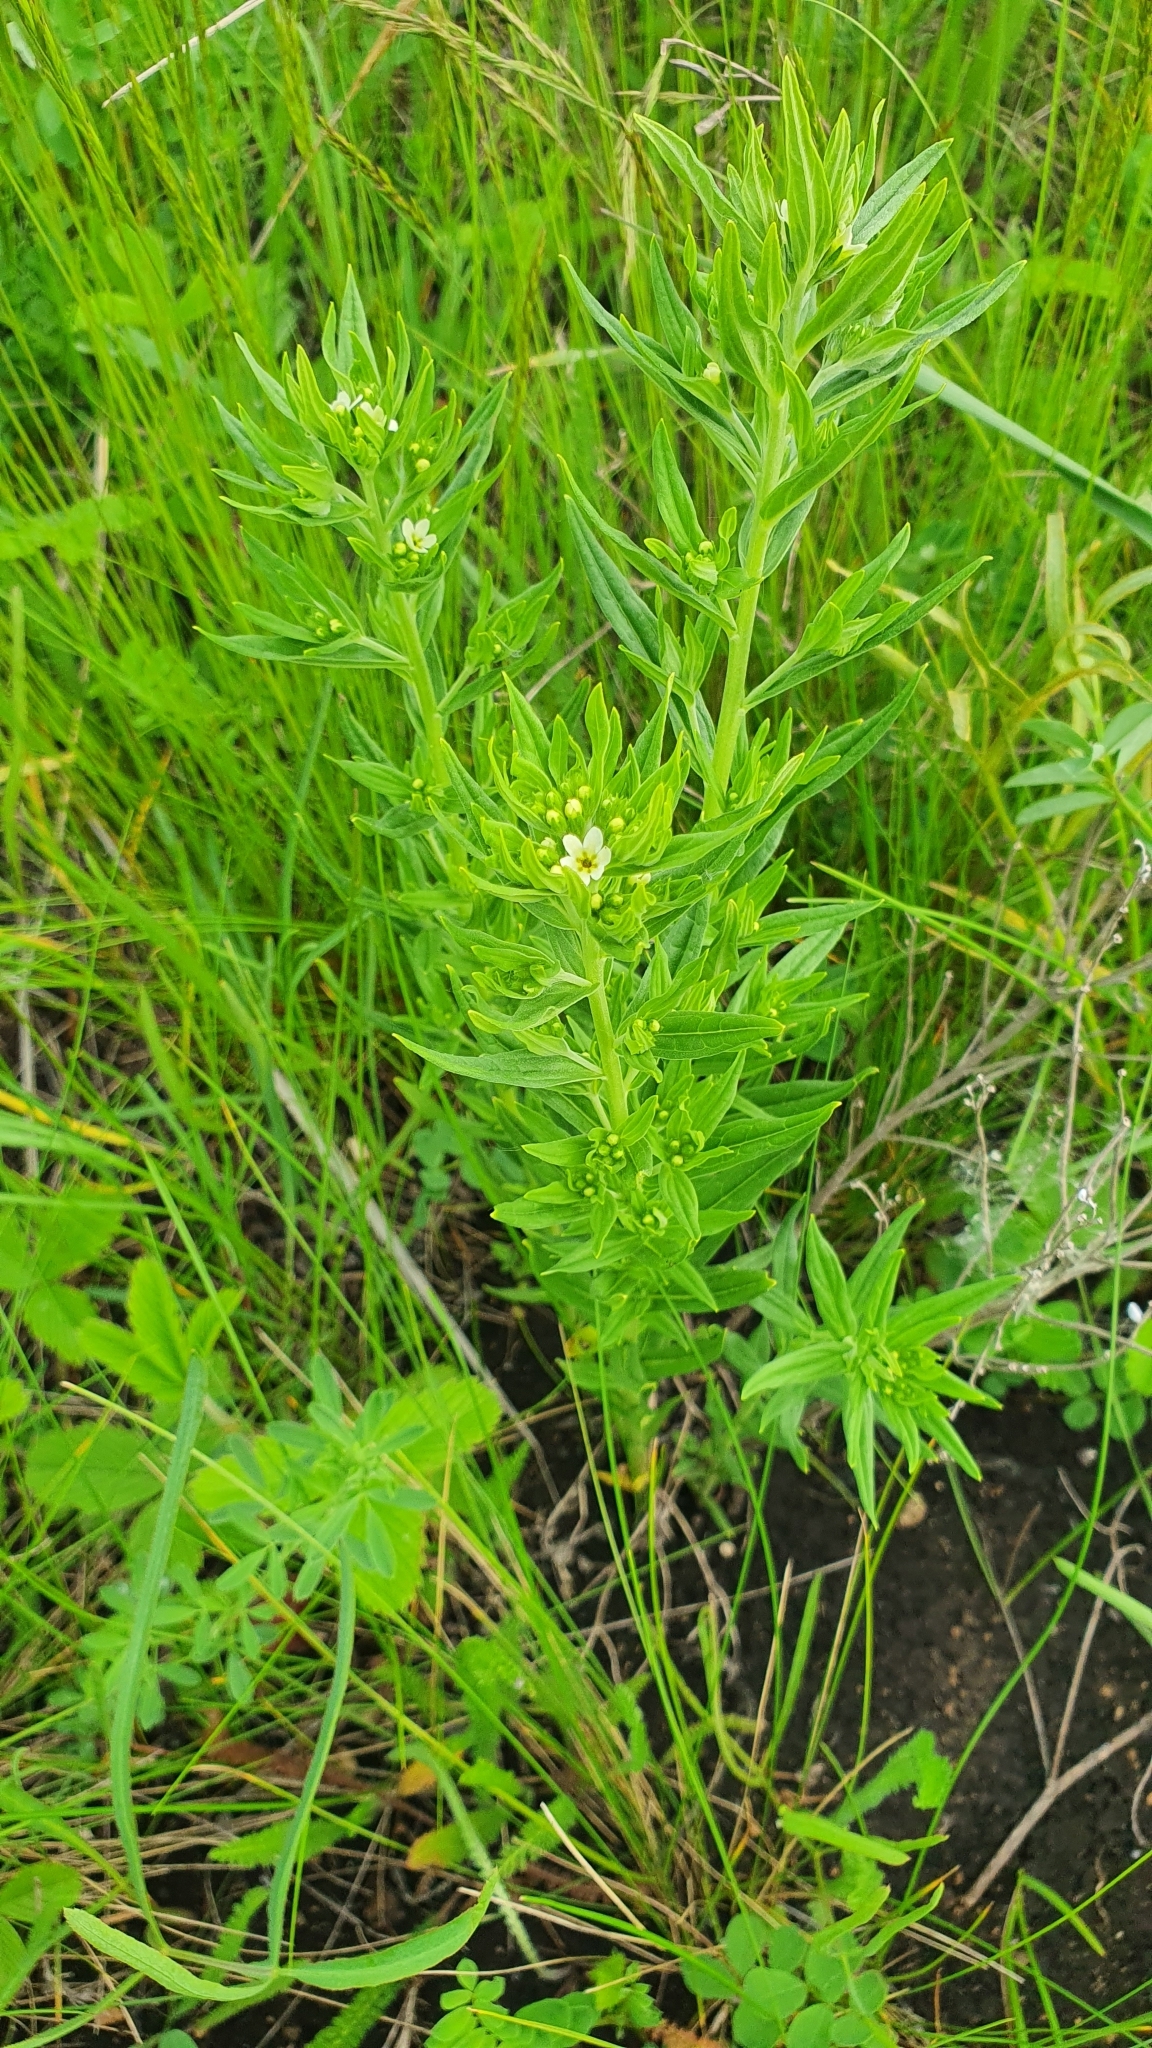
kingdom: Plantae
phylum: Tracheophyta
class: Magnoliopsida
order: Boraginales
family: Boraginaceae
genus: Lithospermum
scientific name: Lithospermum officinale
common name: Common gromwell
